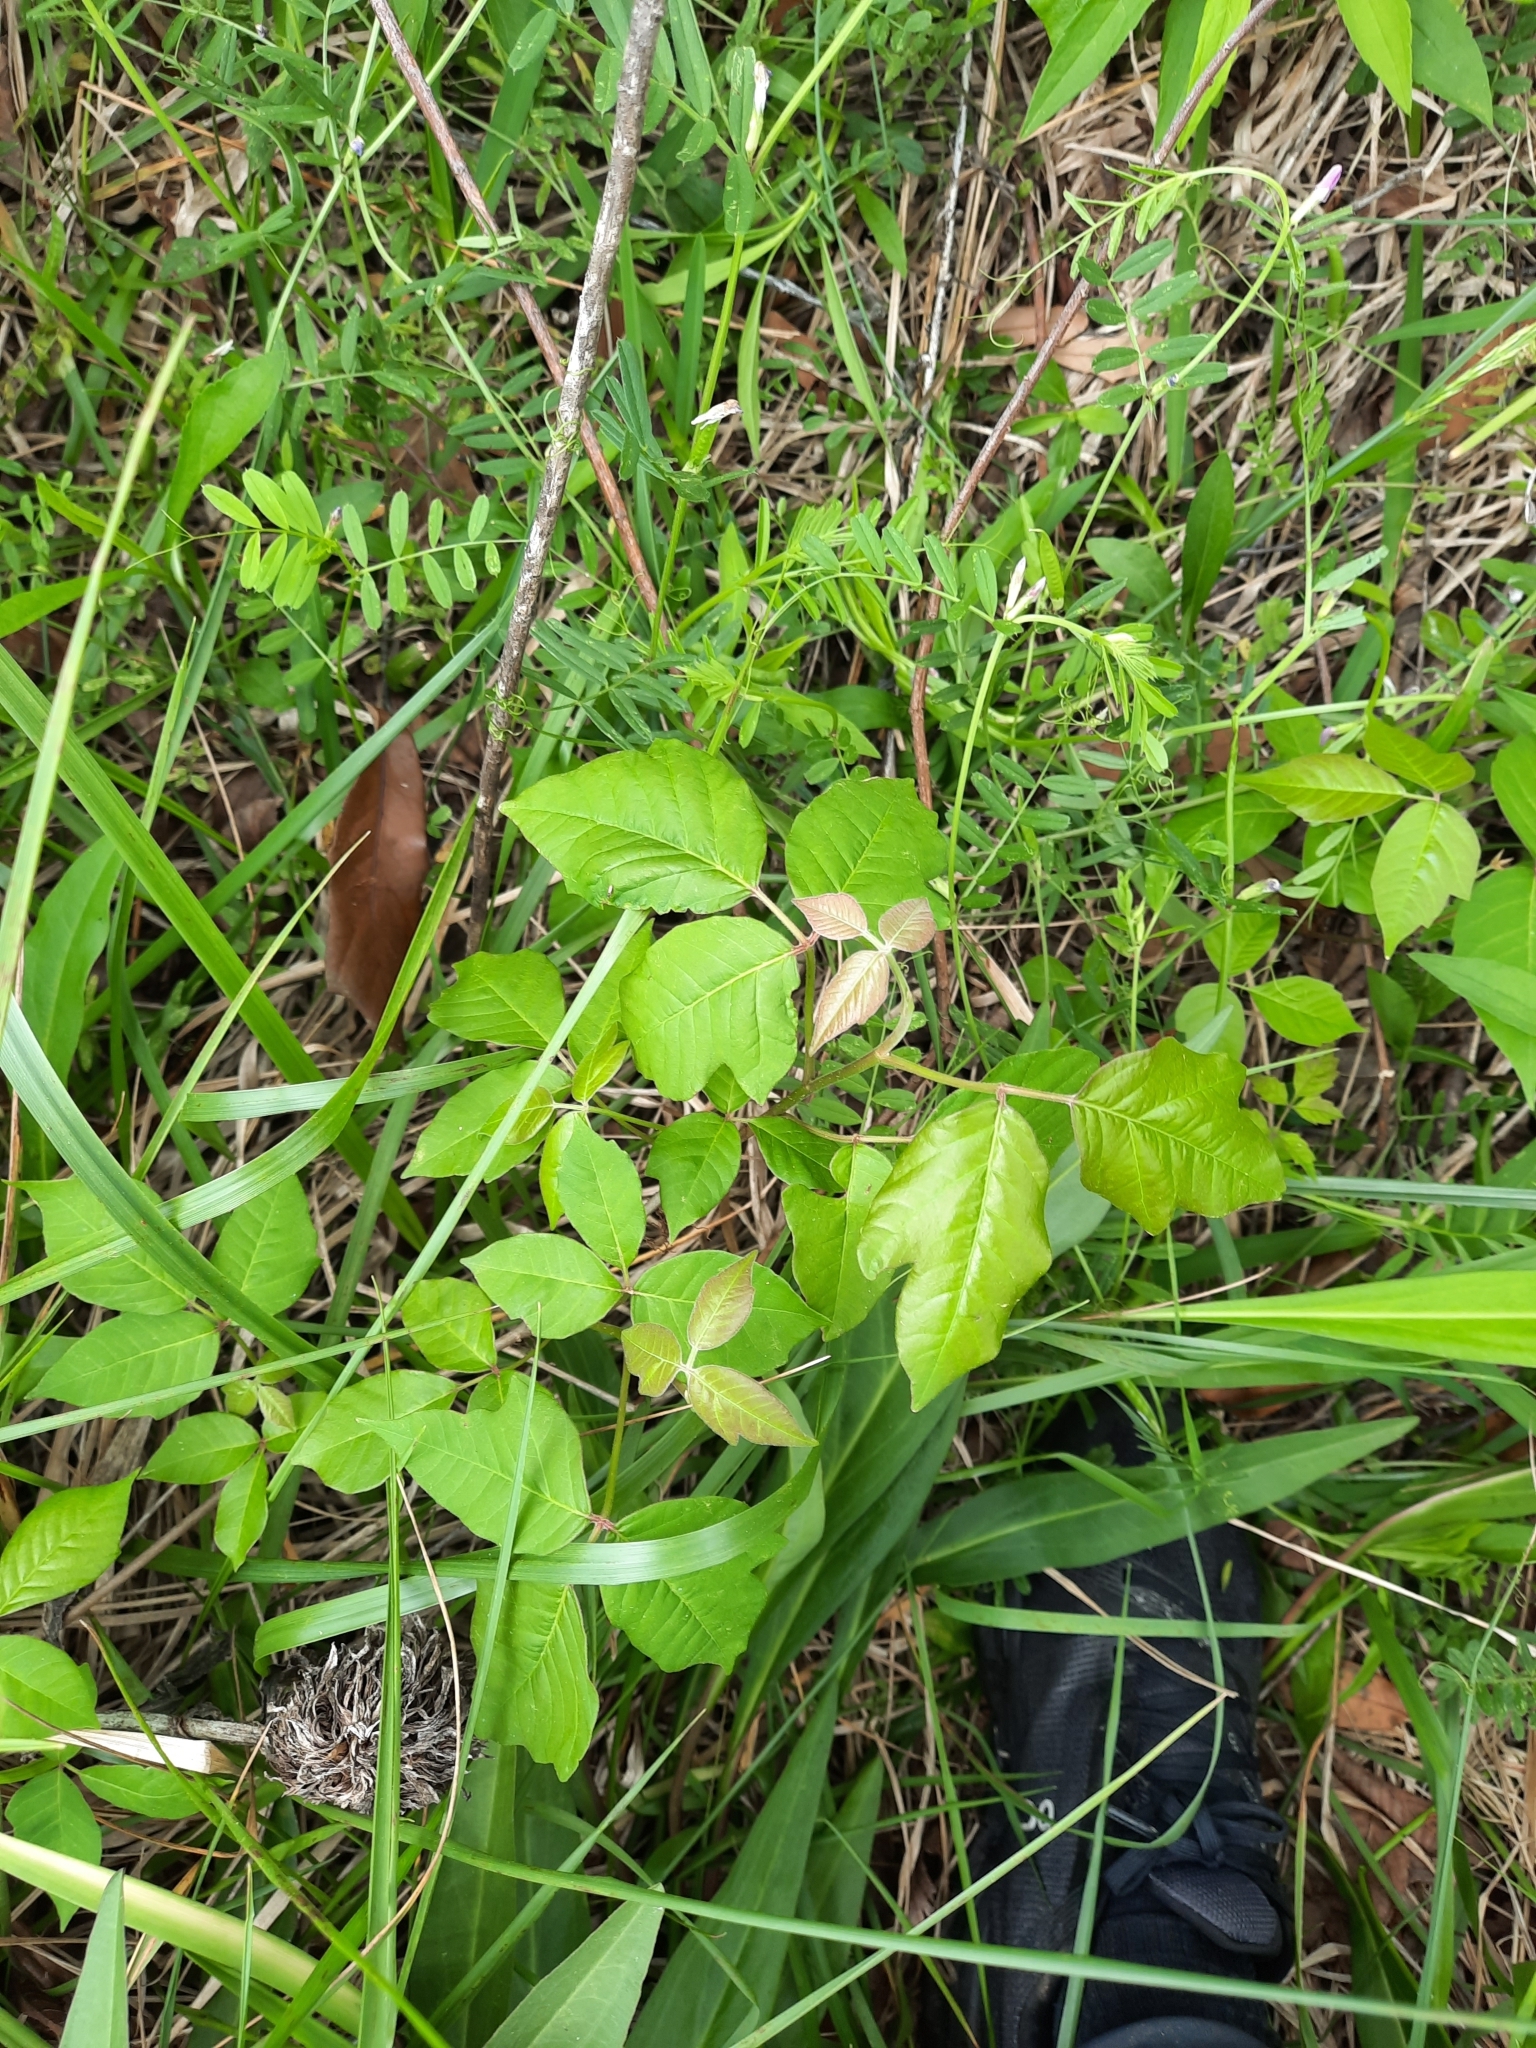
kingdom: Plantae
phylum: Tracheophyta
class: Magnoliopsida
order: Sapindales
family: Anacardiaceae
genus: Toxicodendron
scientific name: Toxicodendron radicans
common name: Poison ivy
